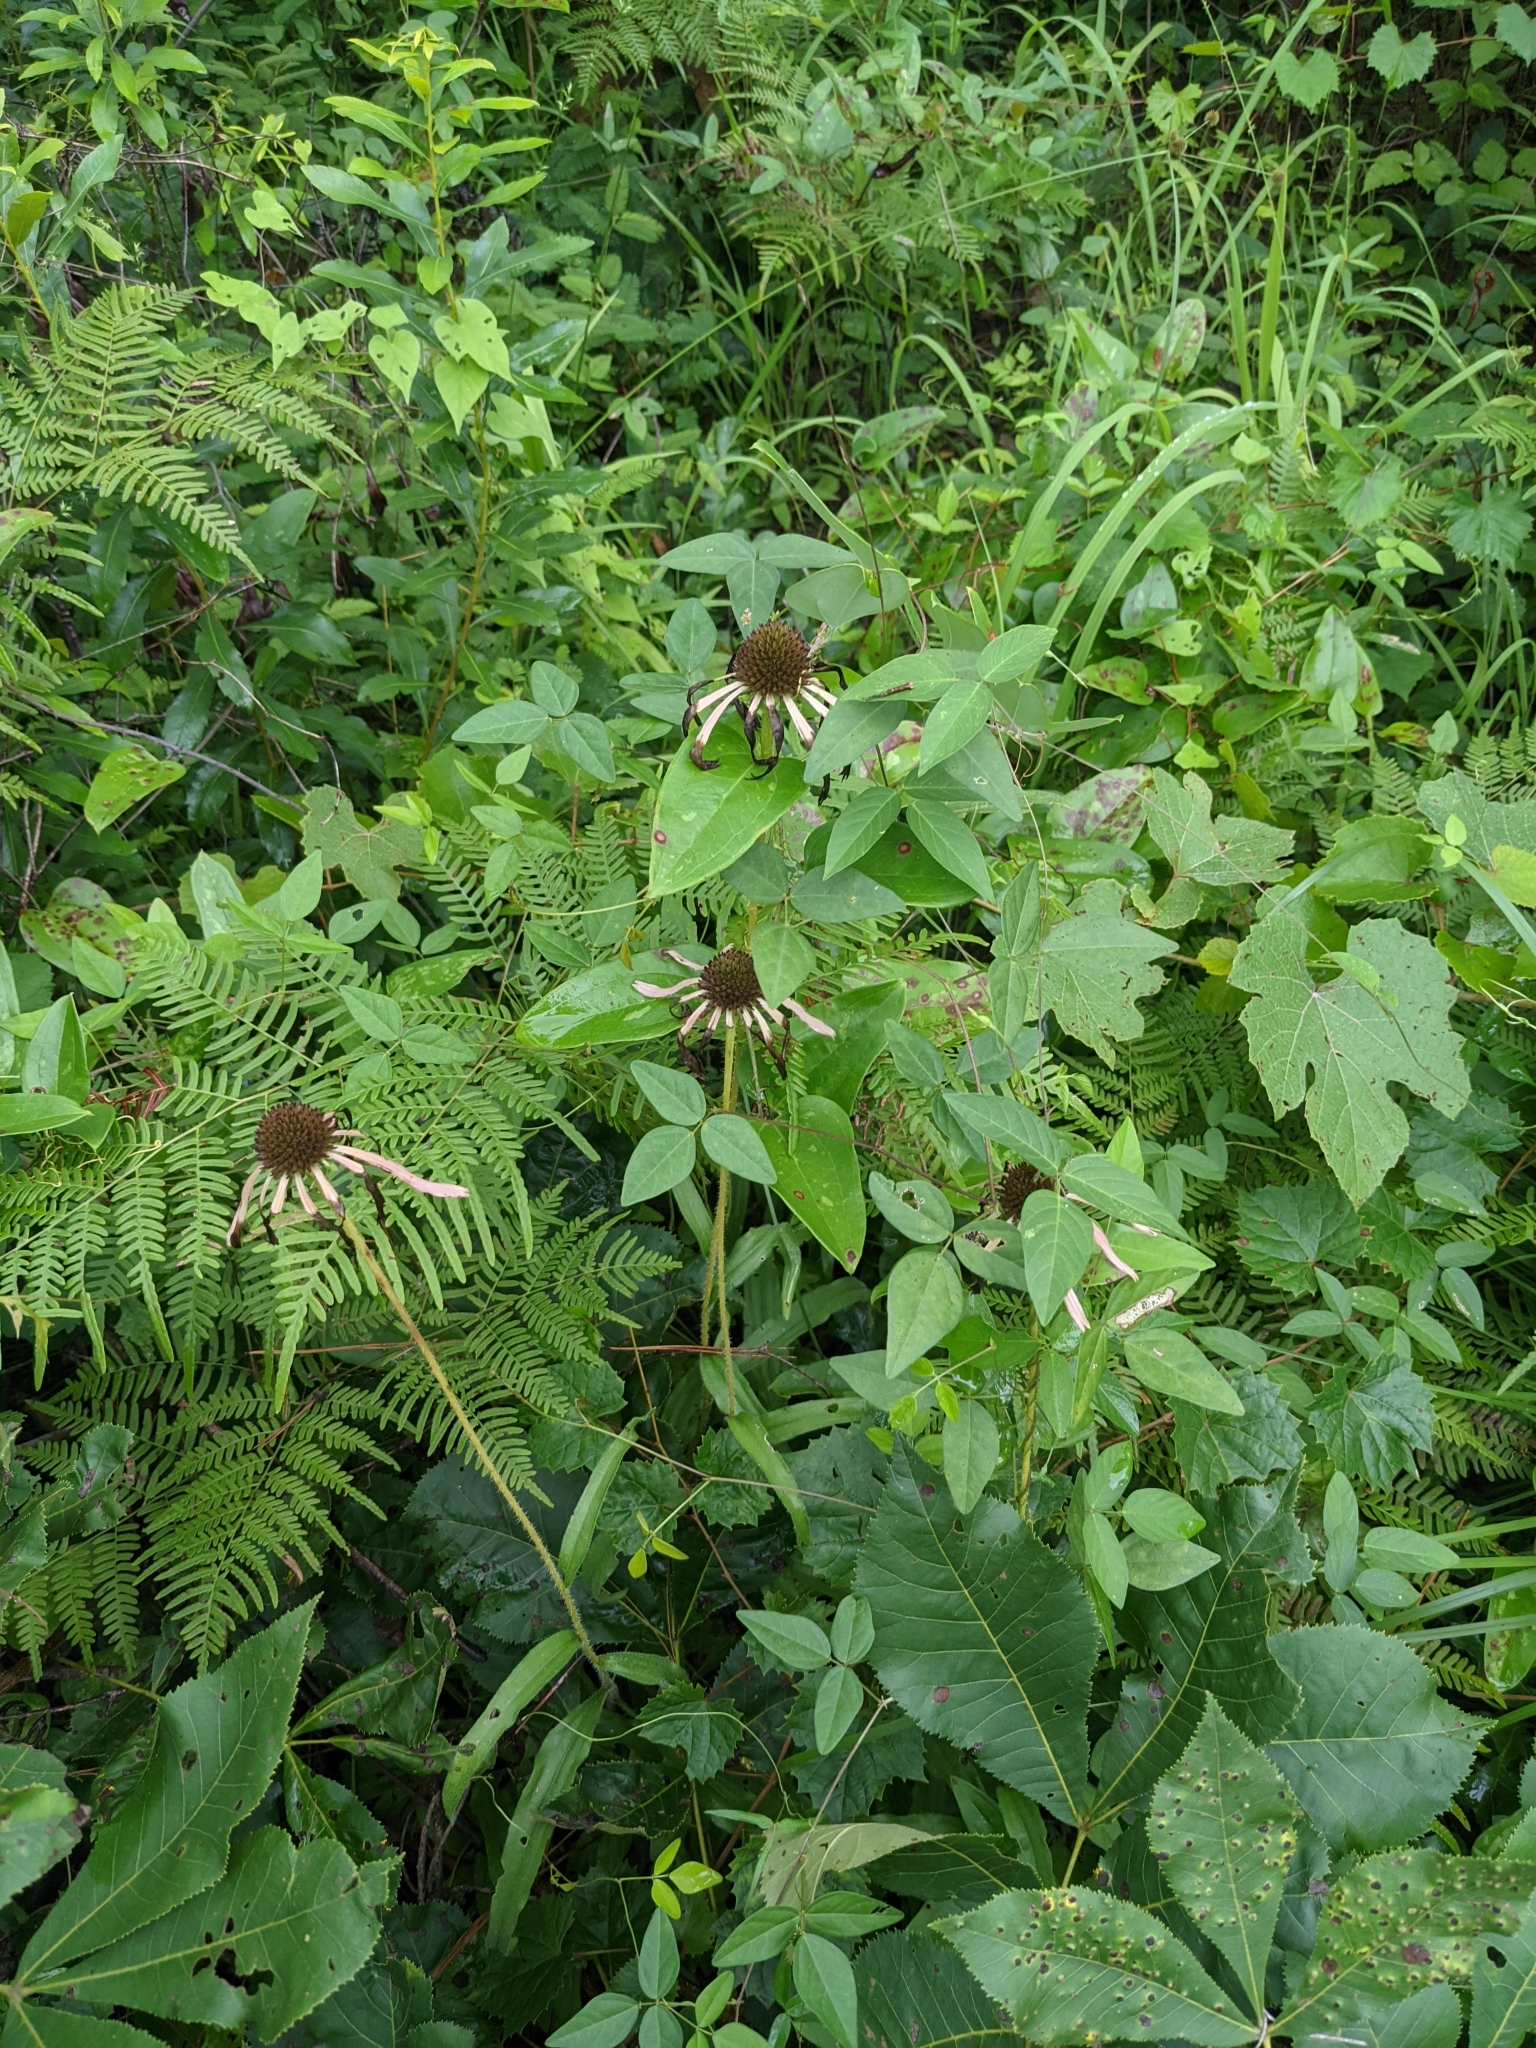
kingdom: Plantae
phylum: Tracheophyta
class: Magnoliopsida
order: Asterales
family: Asteraceae
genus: Echinacea
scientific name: Echinacea sanguinea
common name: Sanguine purple-coneflower
